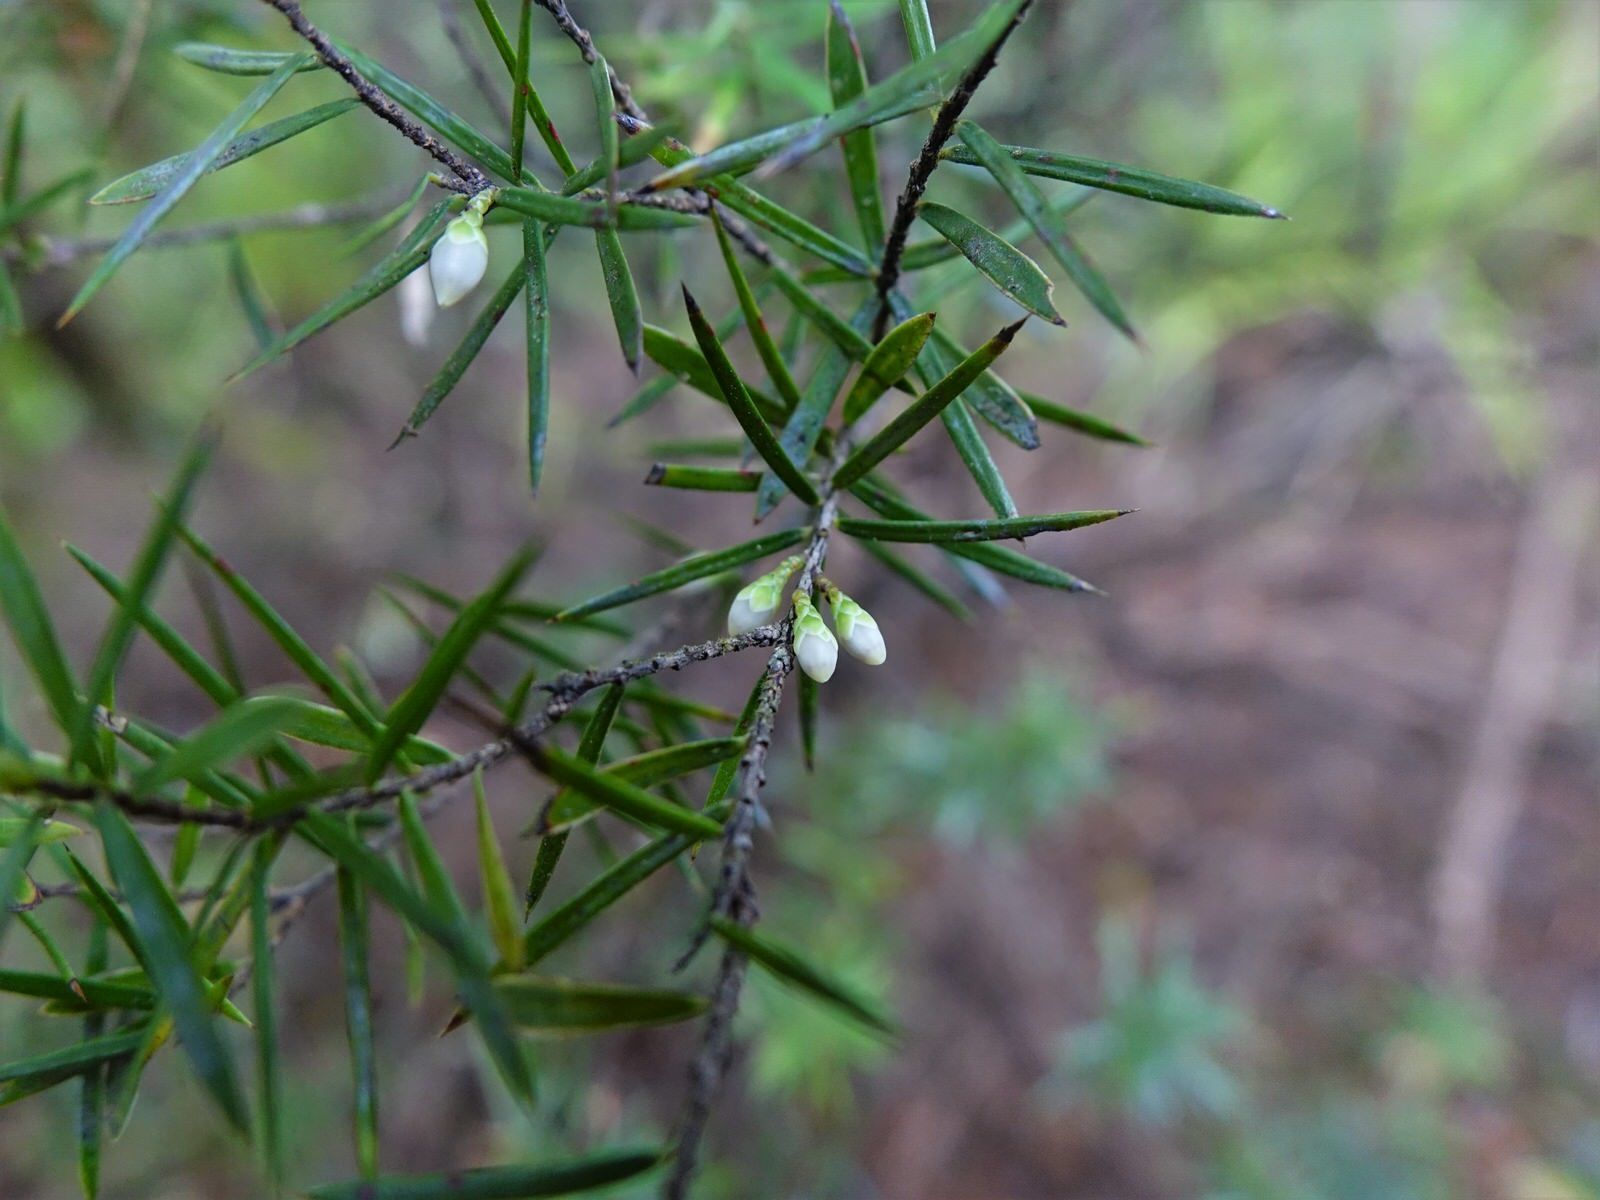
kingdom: Plantae
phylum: Tracheophyta
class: Magnoliopsida
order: Ericales
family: Ericaceae
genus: Leptecophylla
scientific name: Leptecophylla juniperina
